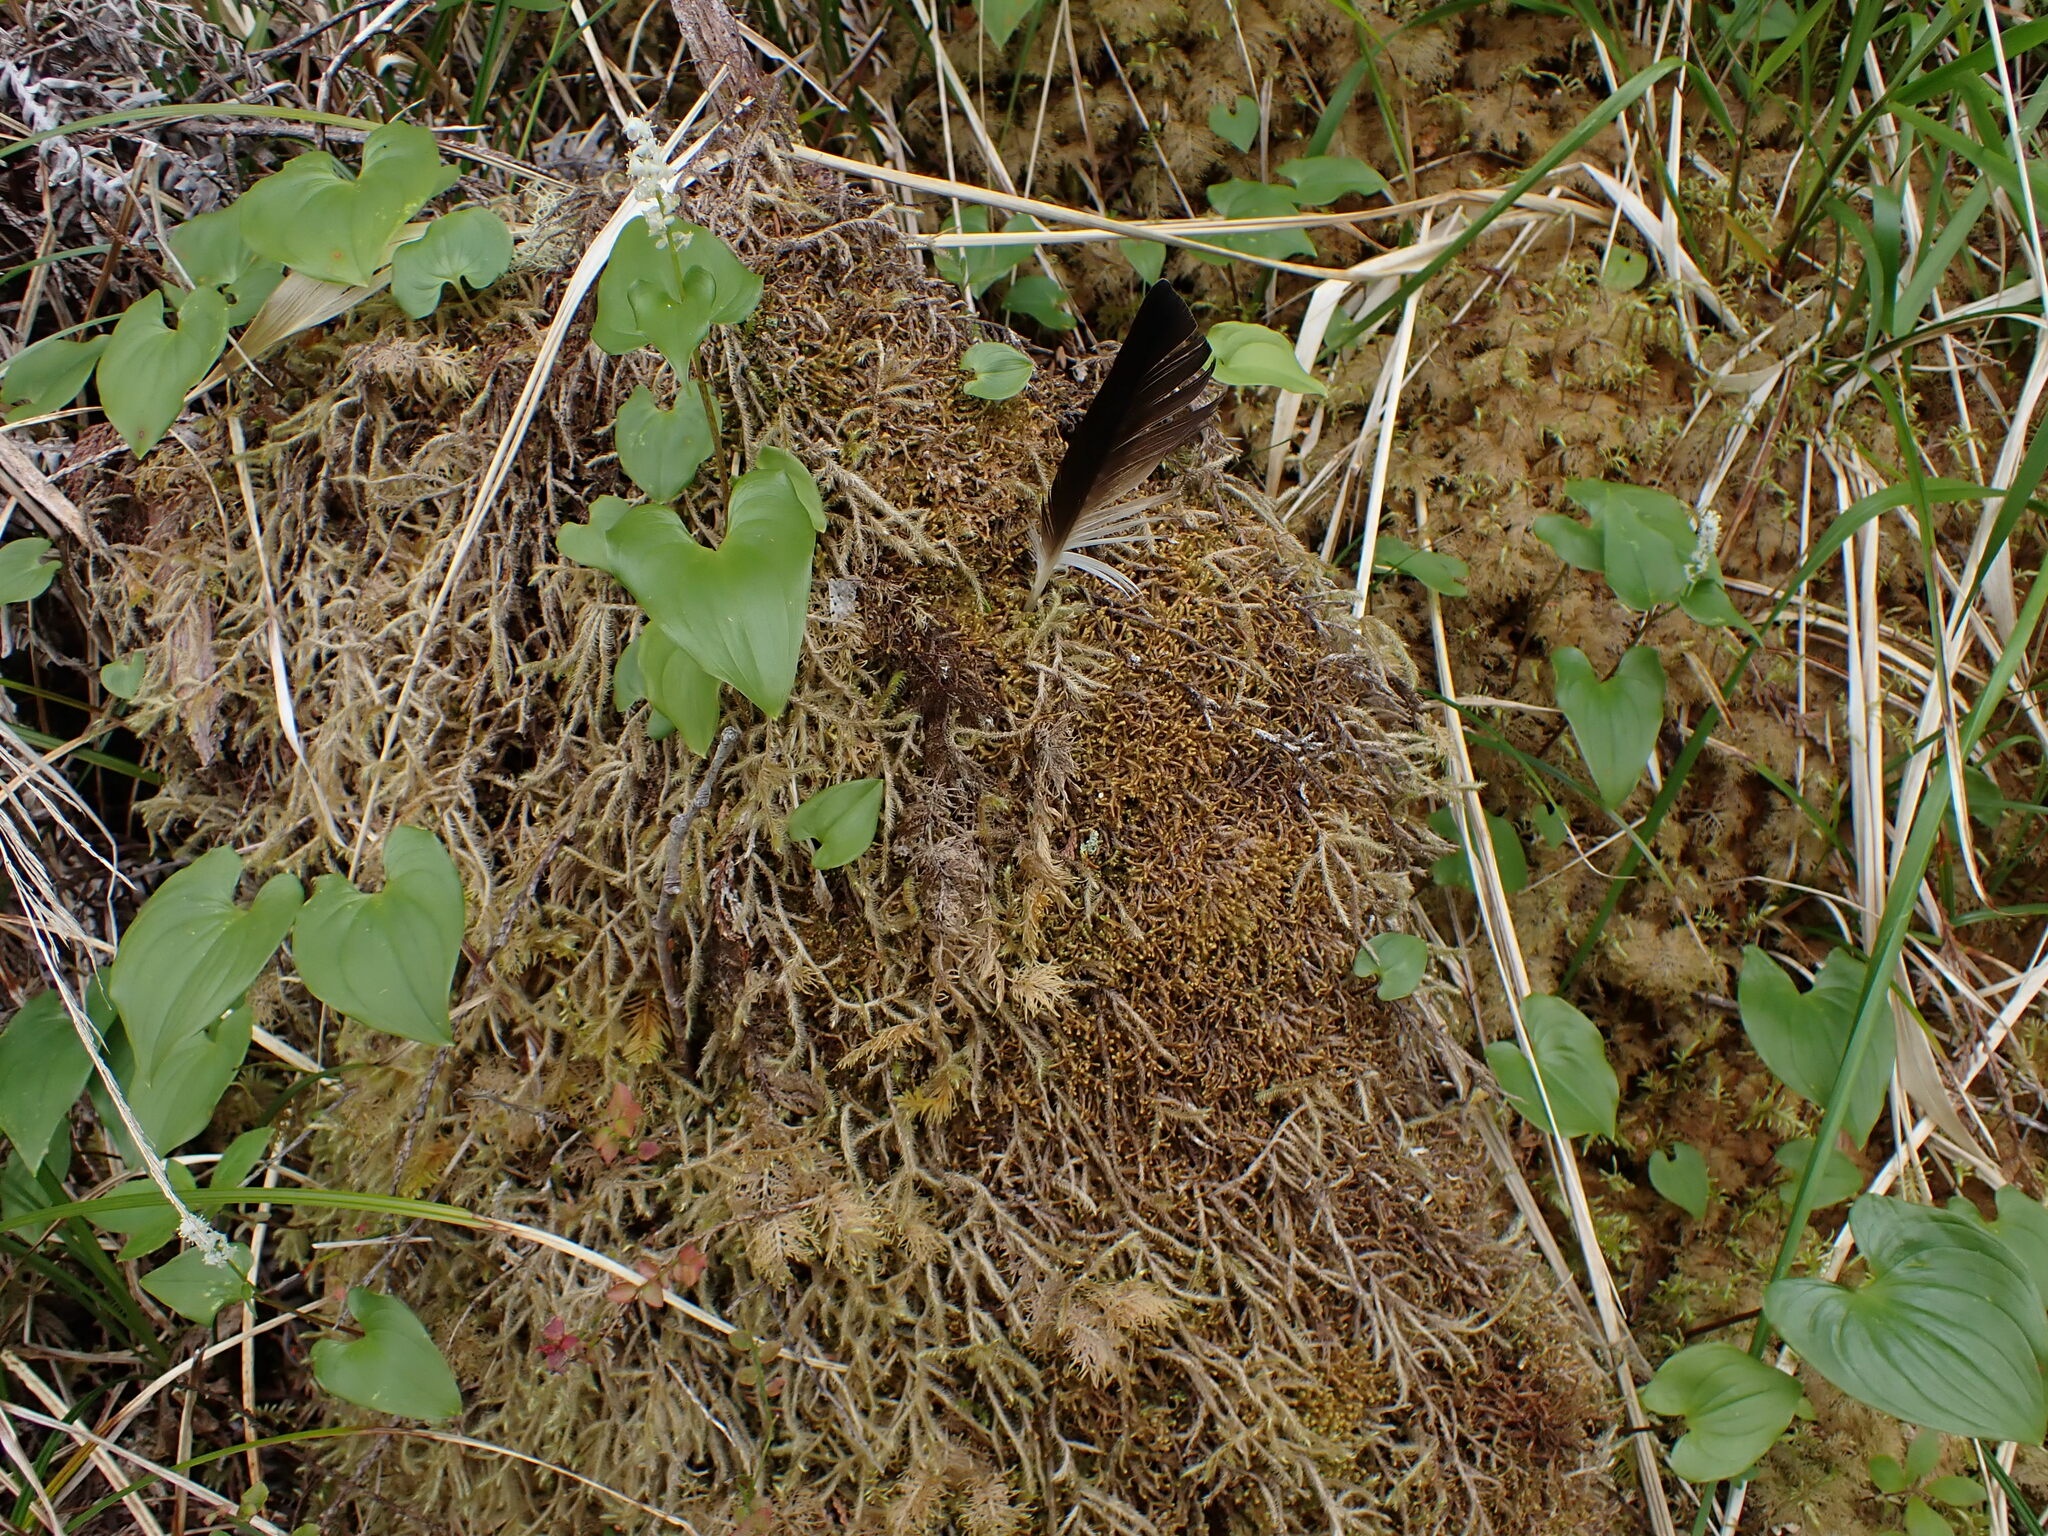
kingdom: Plantae
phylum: Marchantiophyta
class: Jungermanniopsida
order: Jungermanniales
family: Lepidoziaceae
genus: Bazzania
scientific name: Bazzania tricrenata
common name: Lesser whipwort
